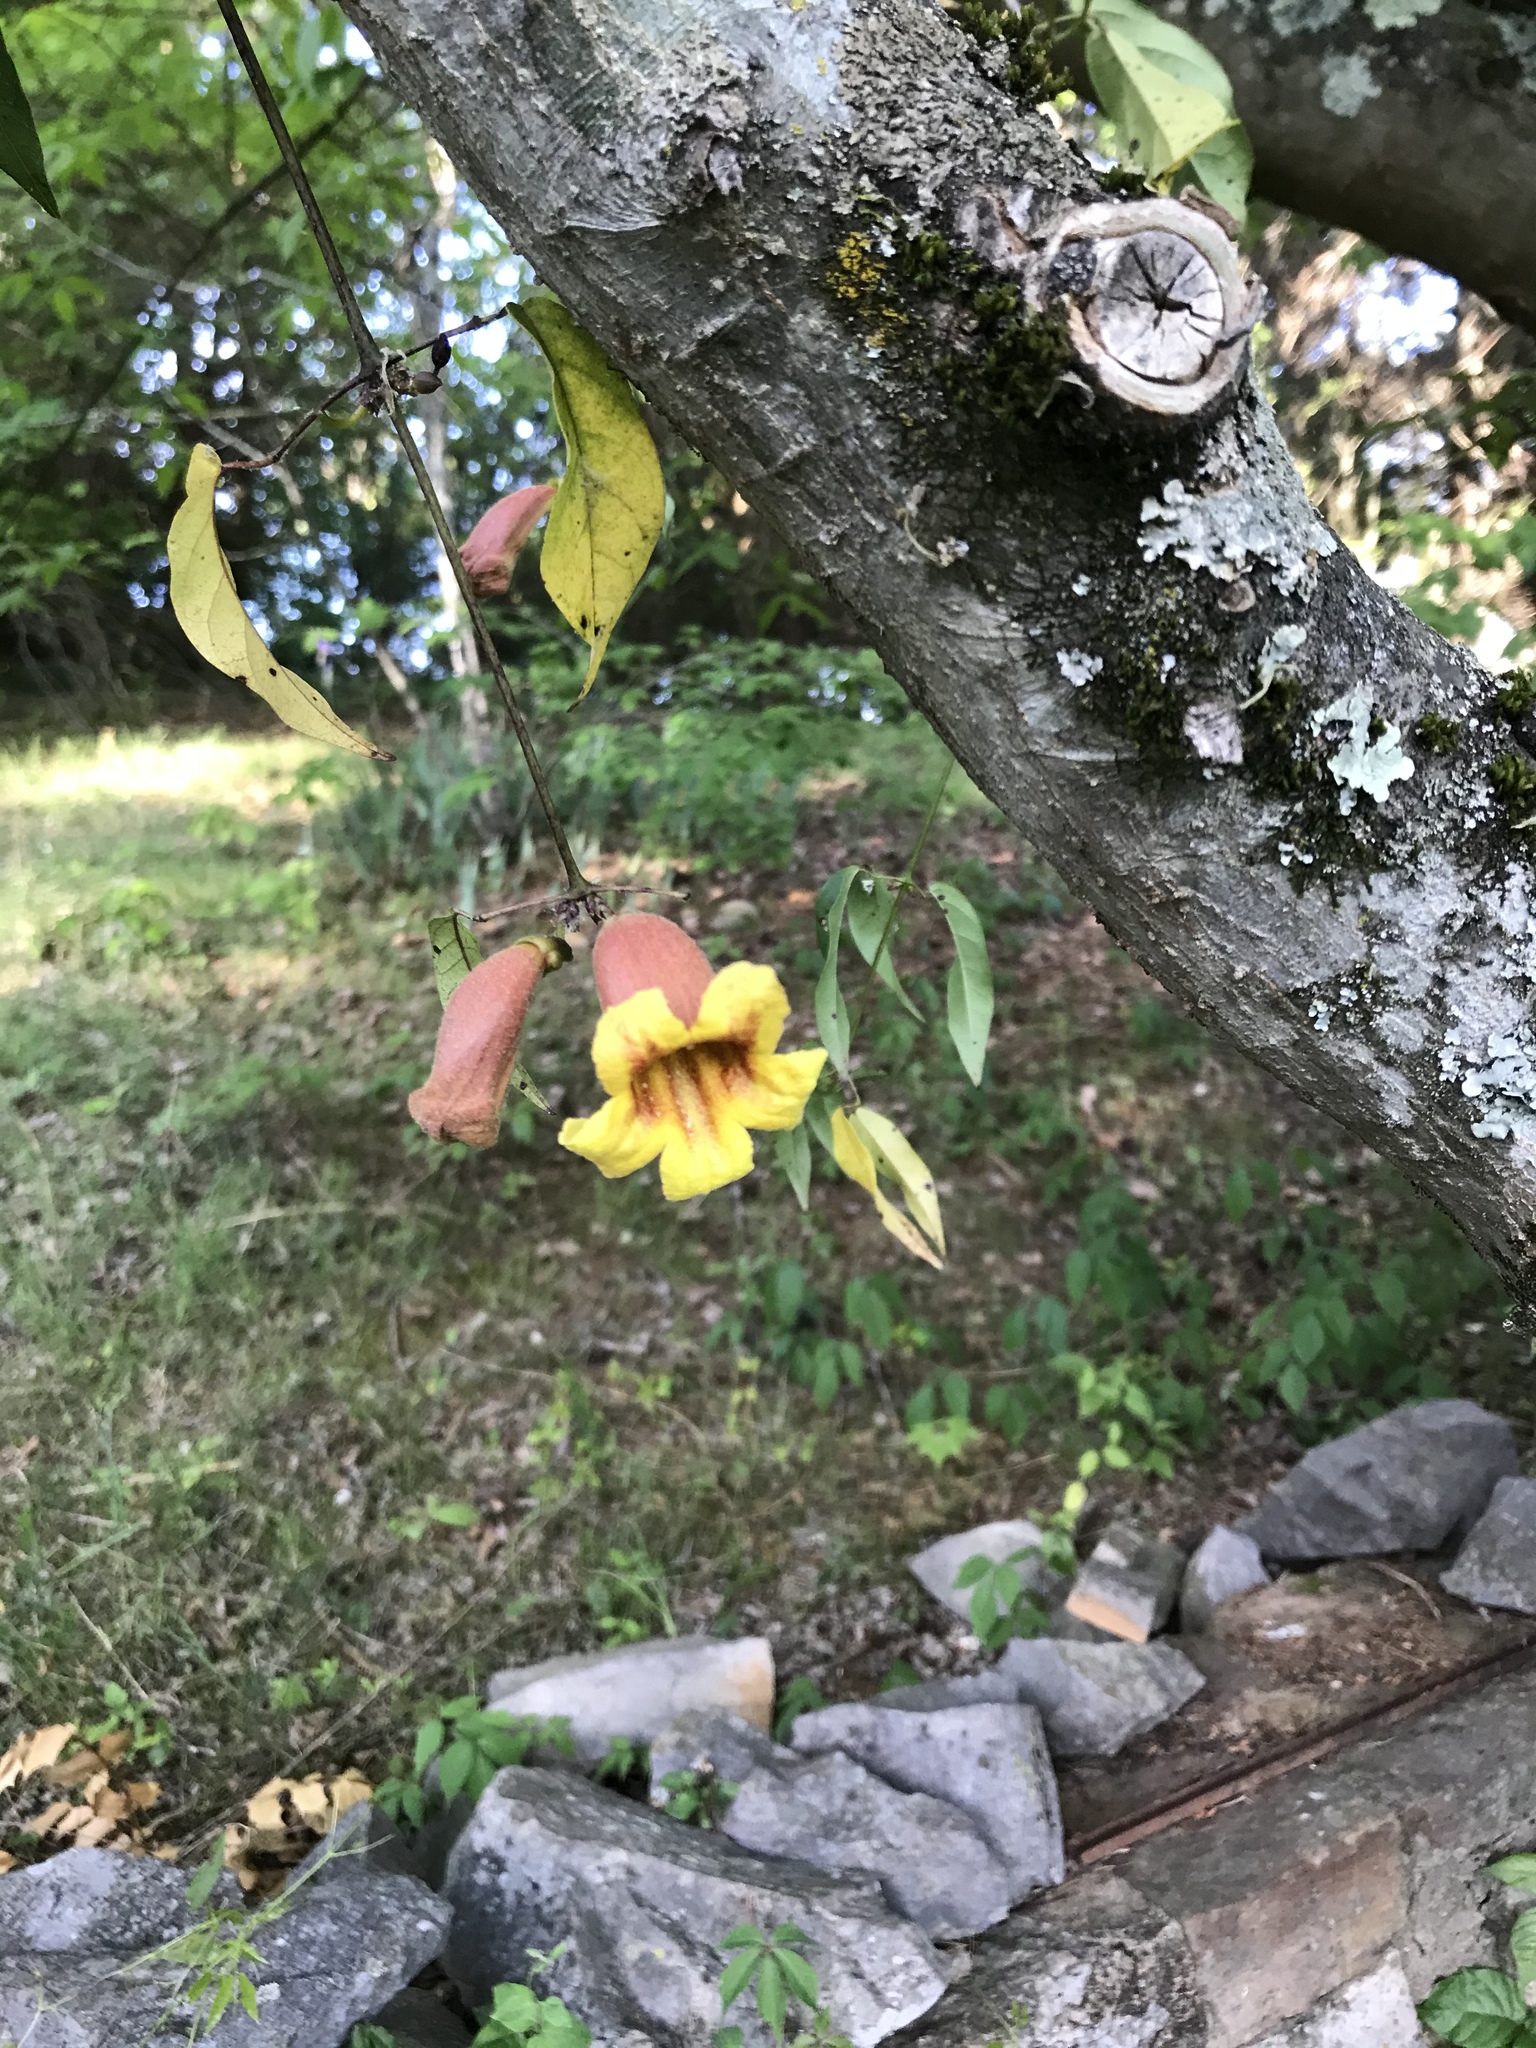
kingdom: Plantae
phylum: Tracheophyta
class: Magnoliopsida
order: Lamiales
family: Bignoniaceae
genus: Bignonia
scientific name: Bignonia capreolata
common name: Crossvine
